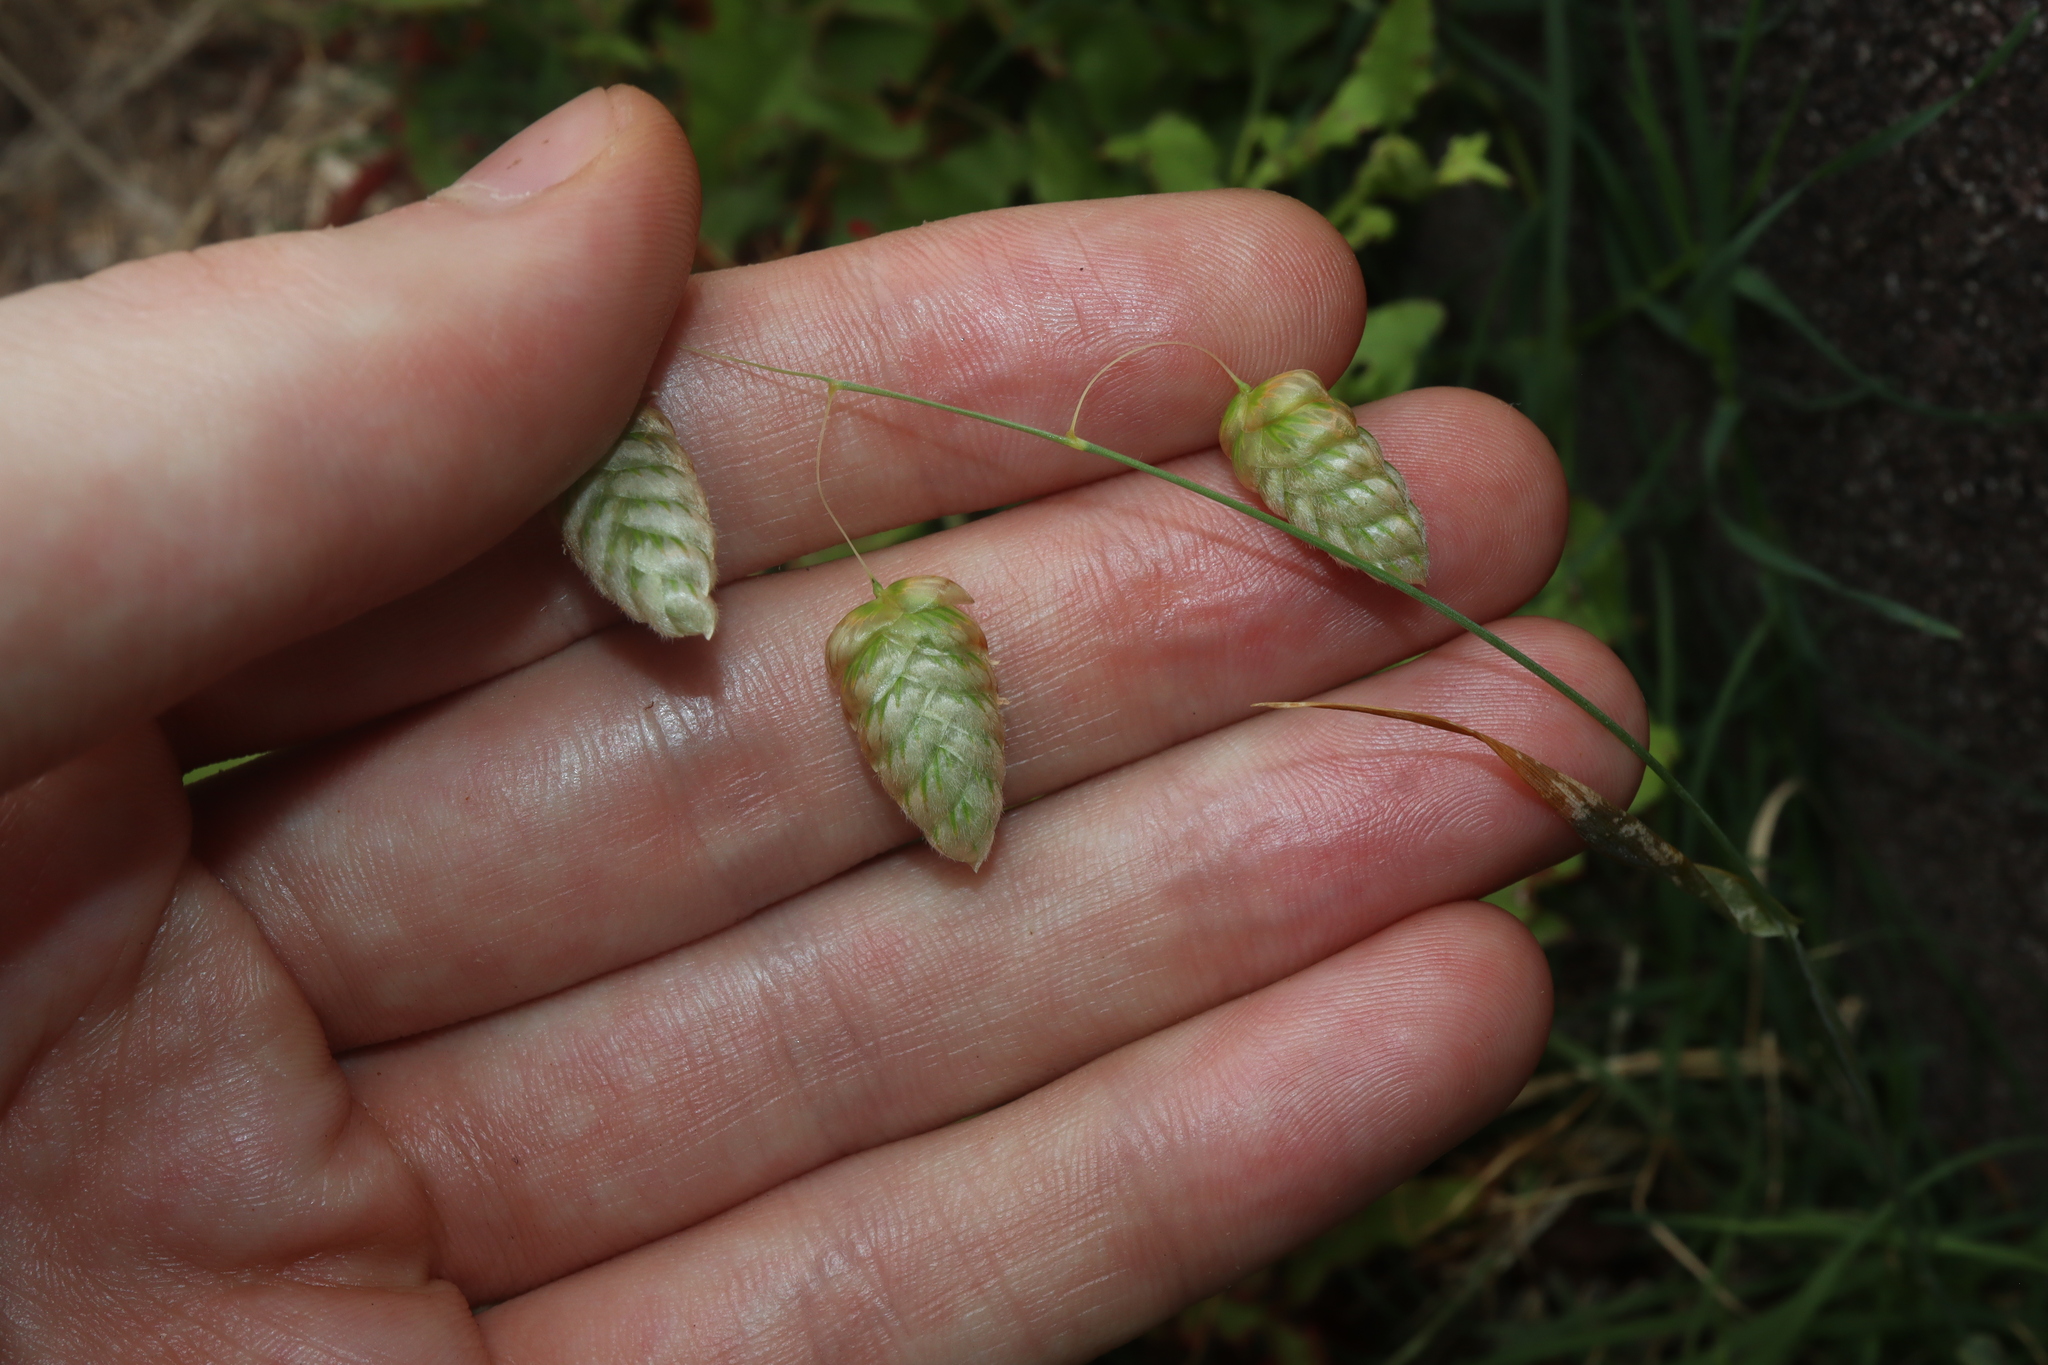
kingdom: Plantae
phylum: Tracheophyta
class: Liliopsida
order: Poales
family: Poaceae
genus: Briza
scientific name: Briza maxima
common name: Big quakinggrass
